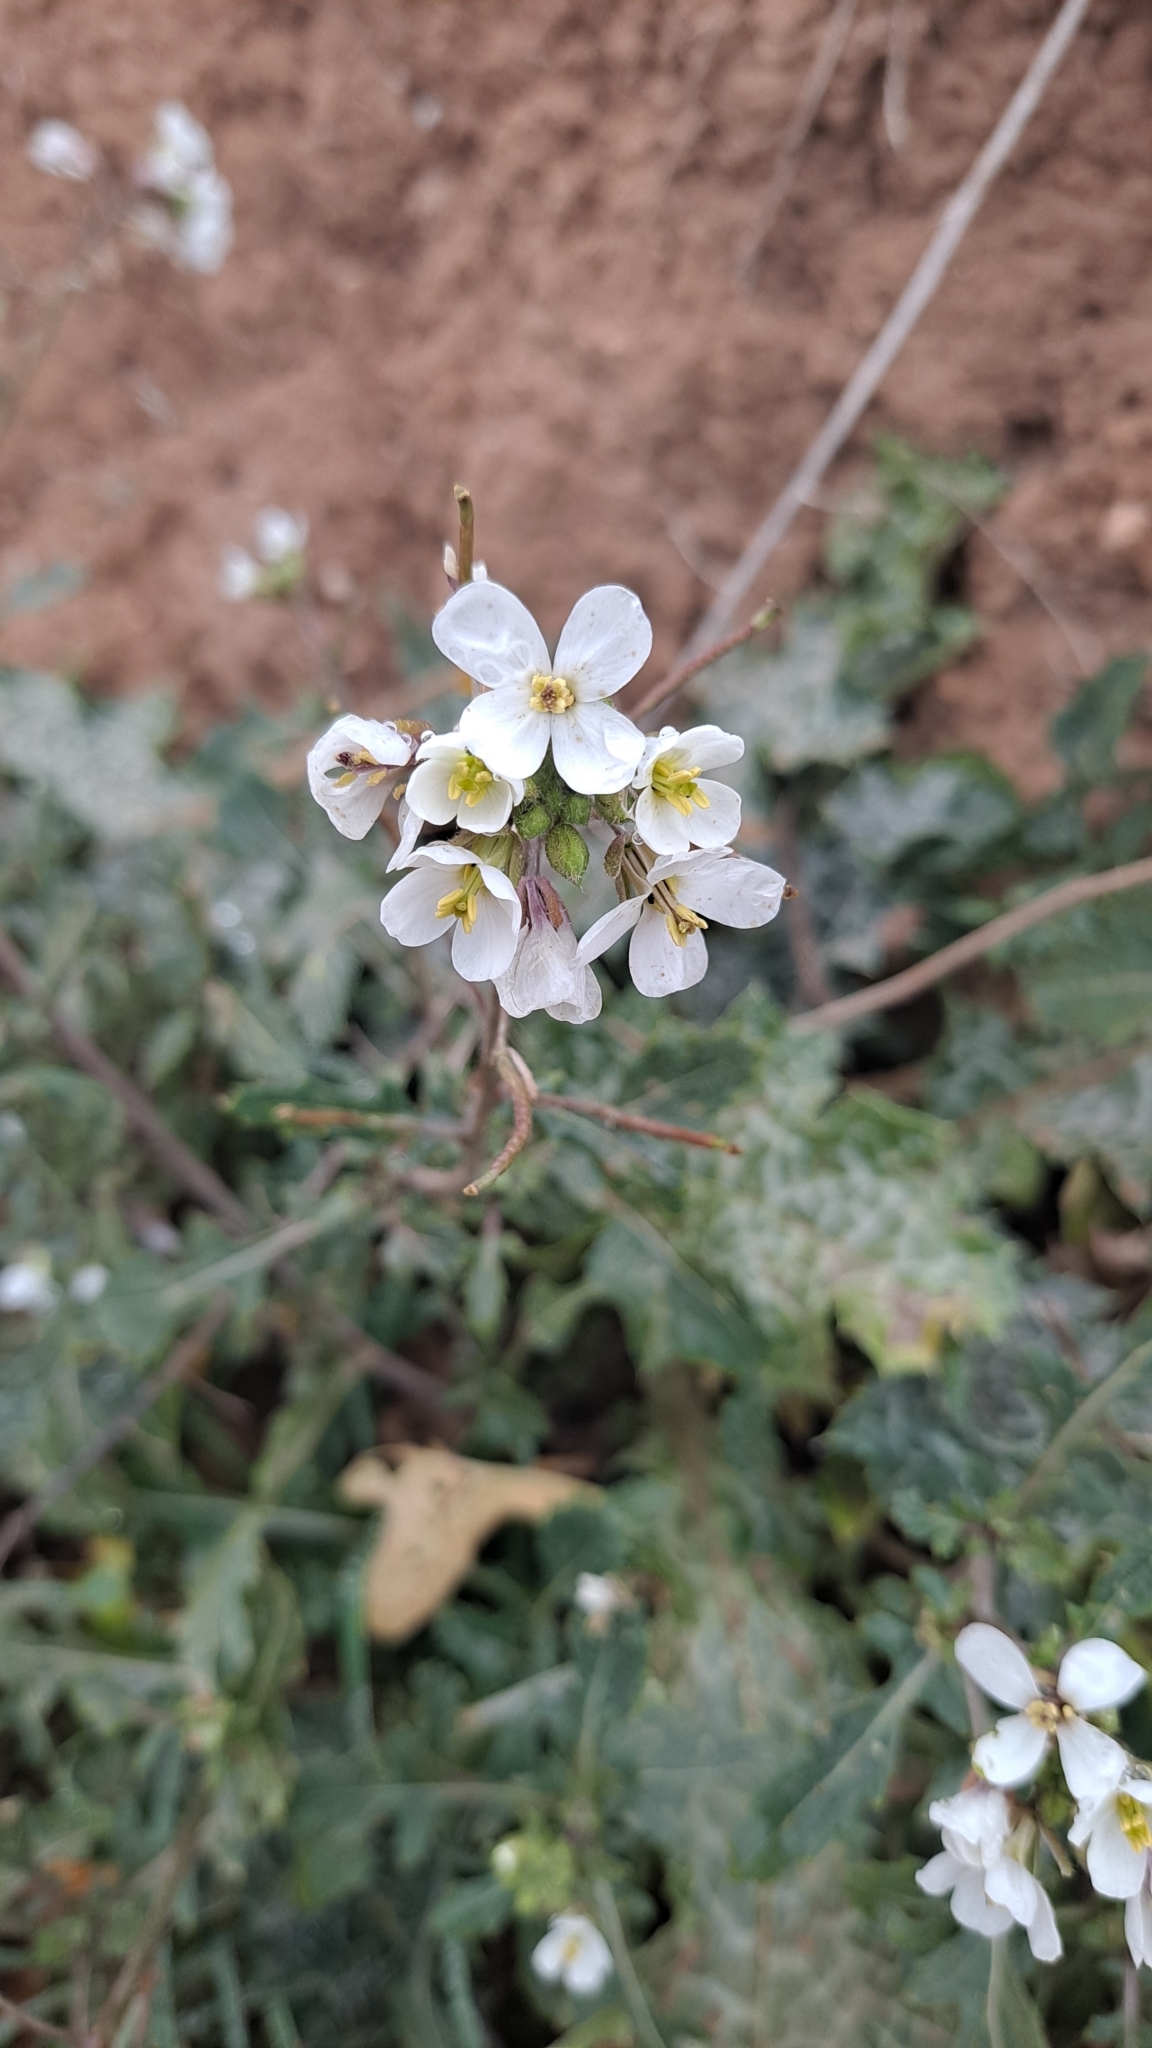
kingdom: Plantae
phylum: Tracheophyta
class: Magnoliopsida
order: Brassicales
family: Brassicaceae
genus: Diplotaxis
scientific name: Diplotaxis erucoides
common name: White rocket
